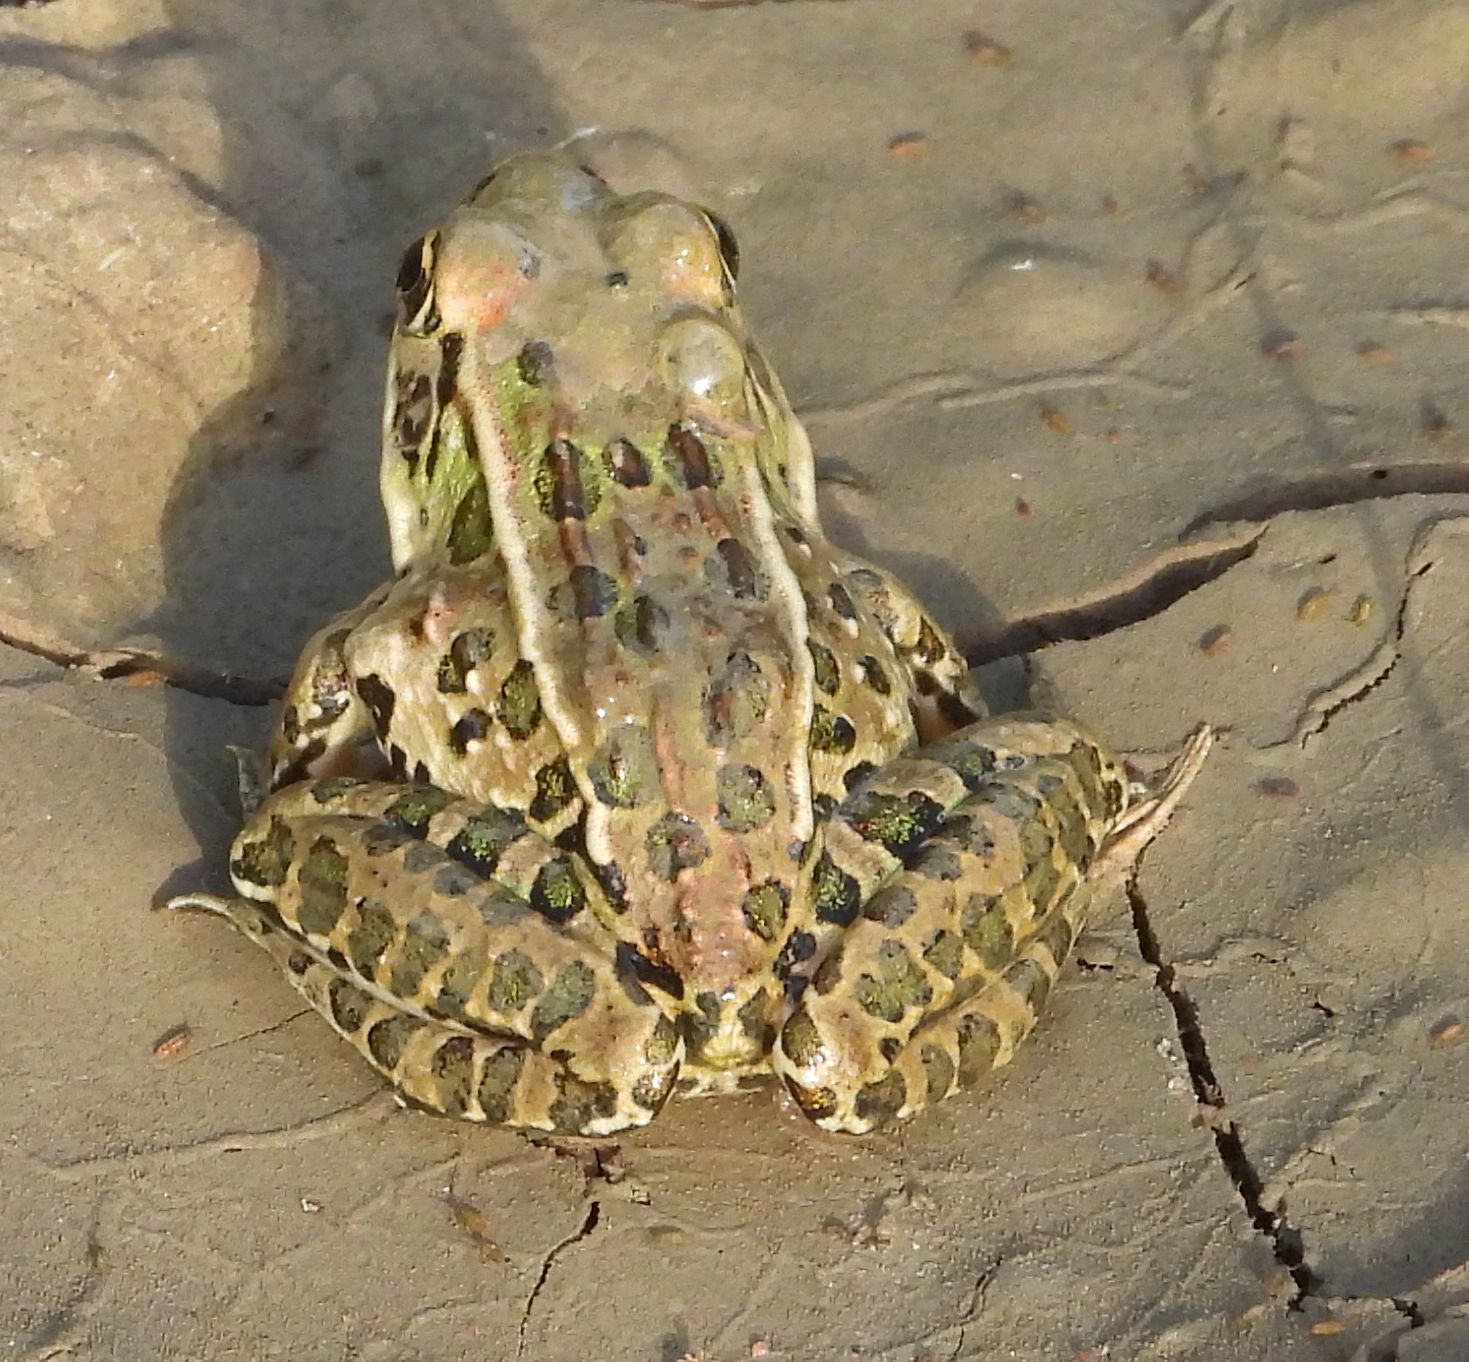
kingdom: Animalia
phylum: Chordata
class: Amphibia
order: Anura
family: Ranidae
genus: Lithobates
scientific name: Lithobates pipiens
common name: Northern leopard frog
